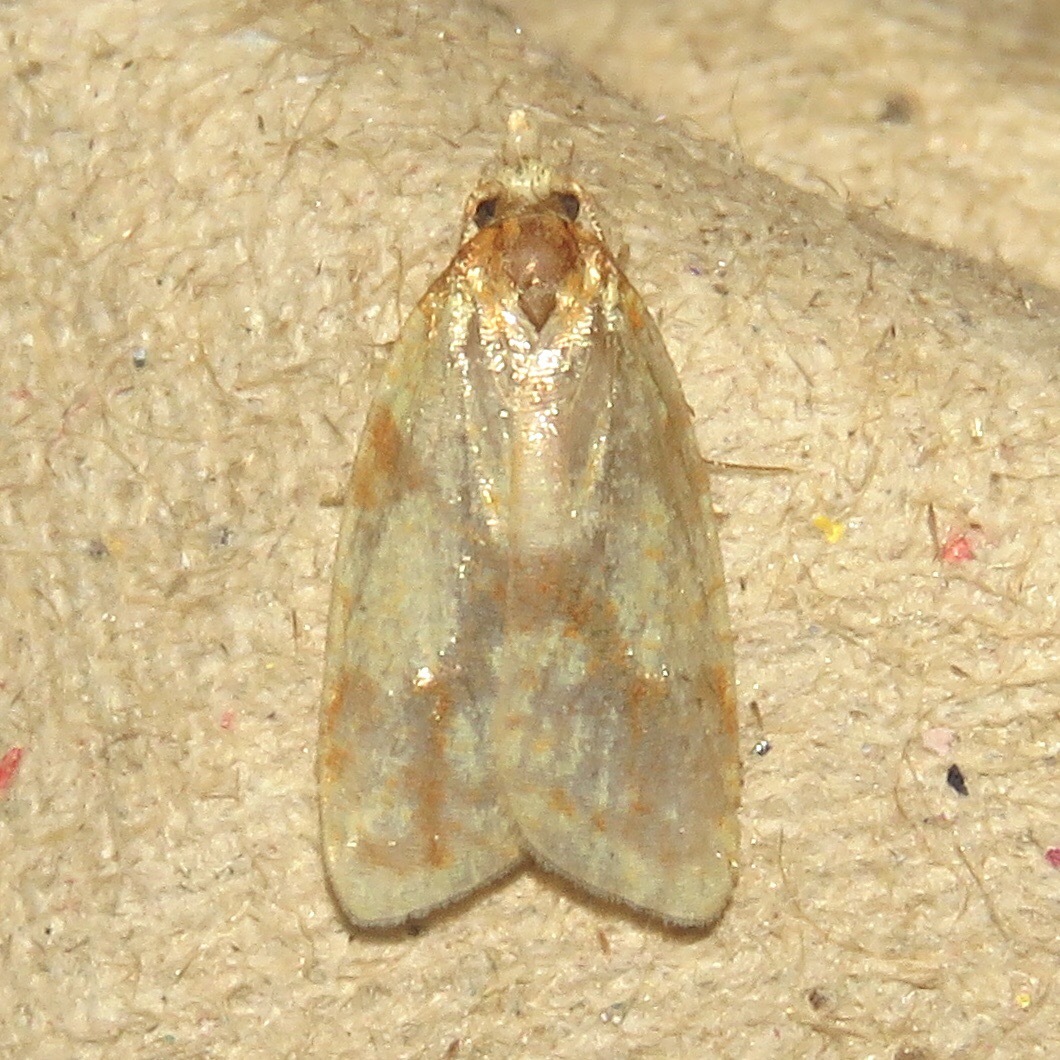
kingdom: Animalia
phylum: Arthropoda
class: Insecta
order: Lepidoptera
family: Tortricidae
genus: Sparganothis
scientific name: Sparganothis sulfureana
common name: Sparganothis fruitworm moth
